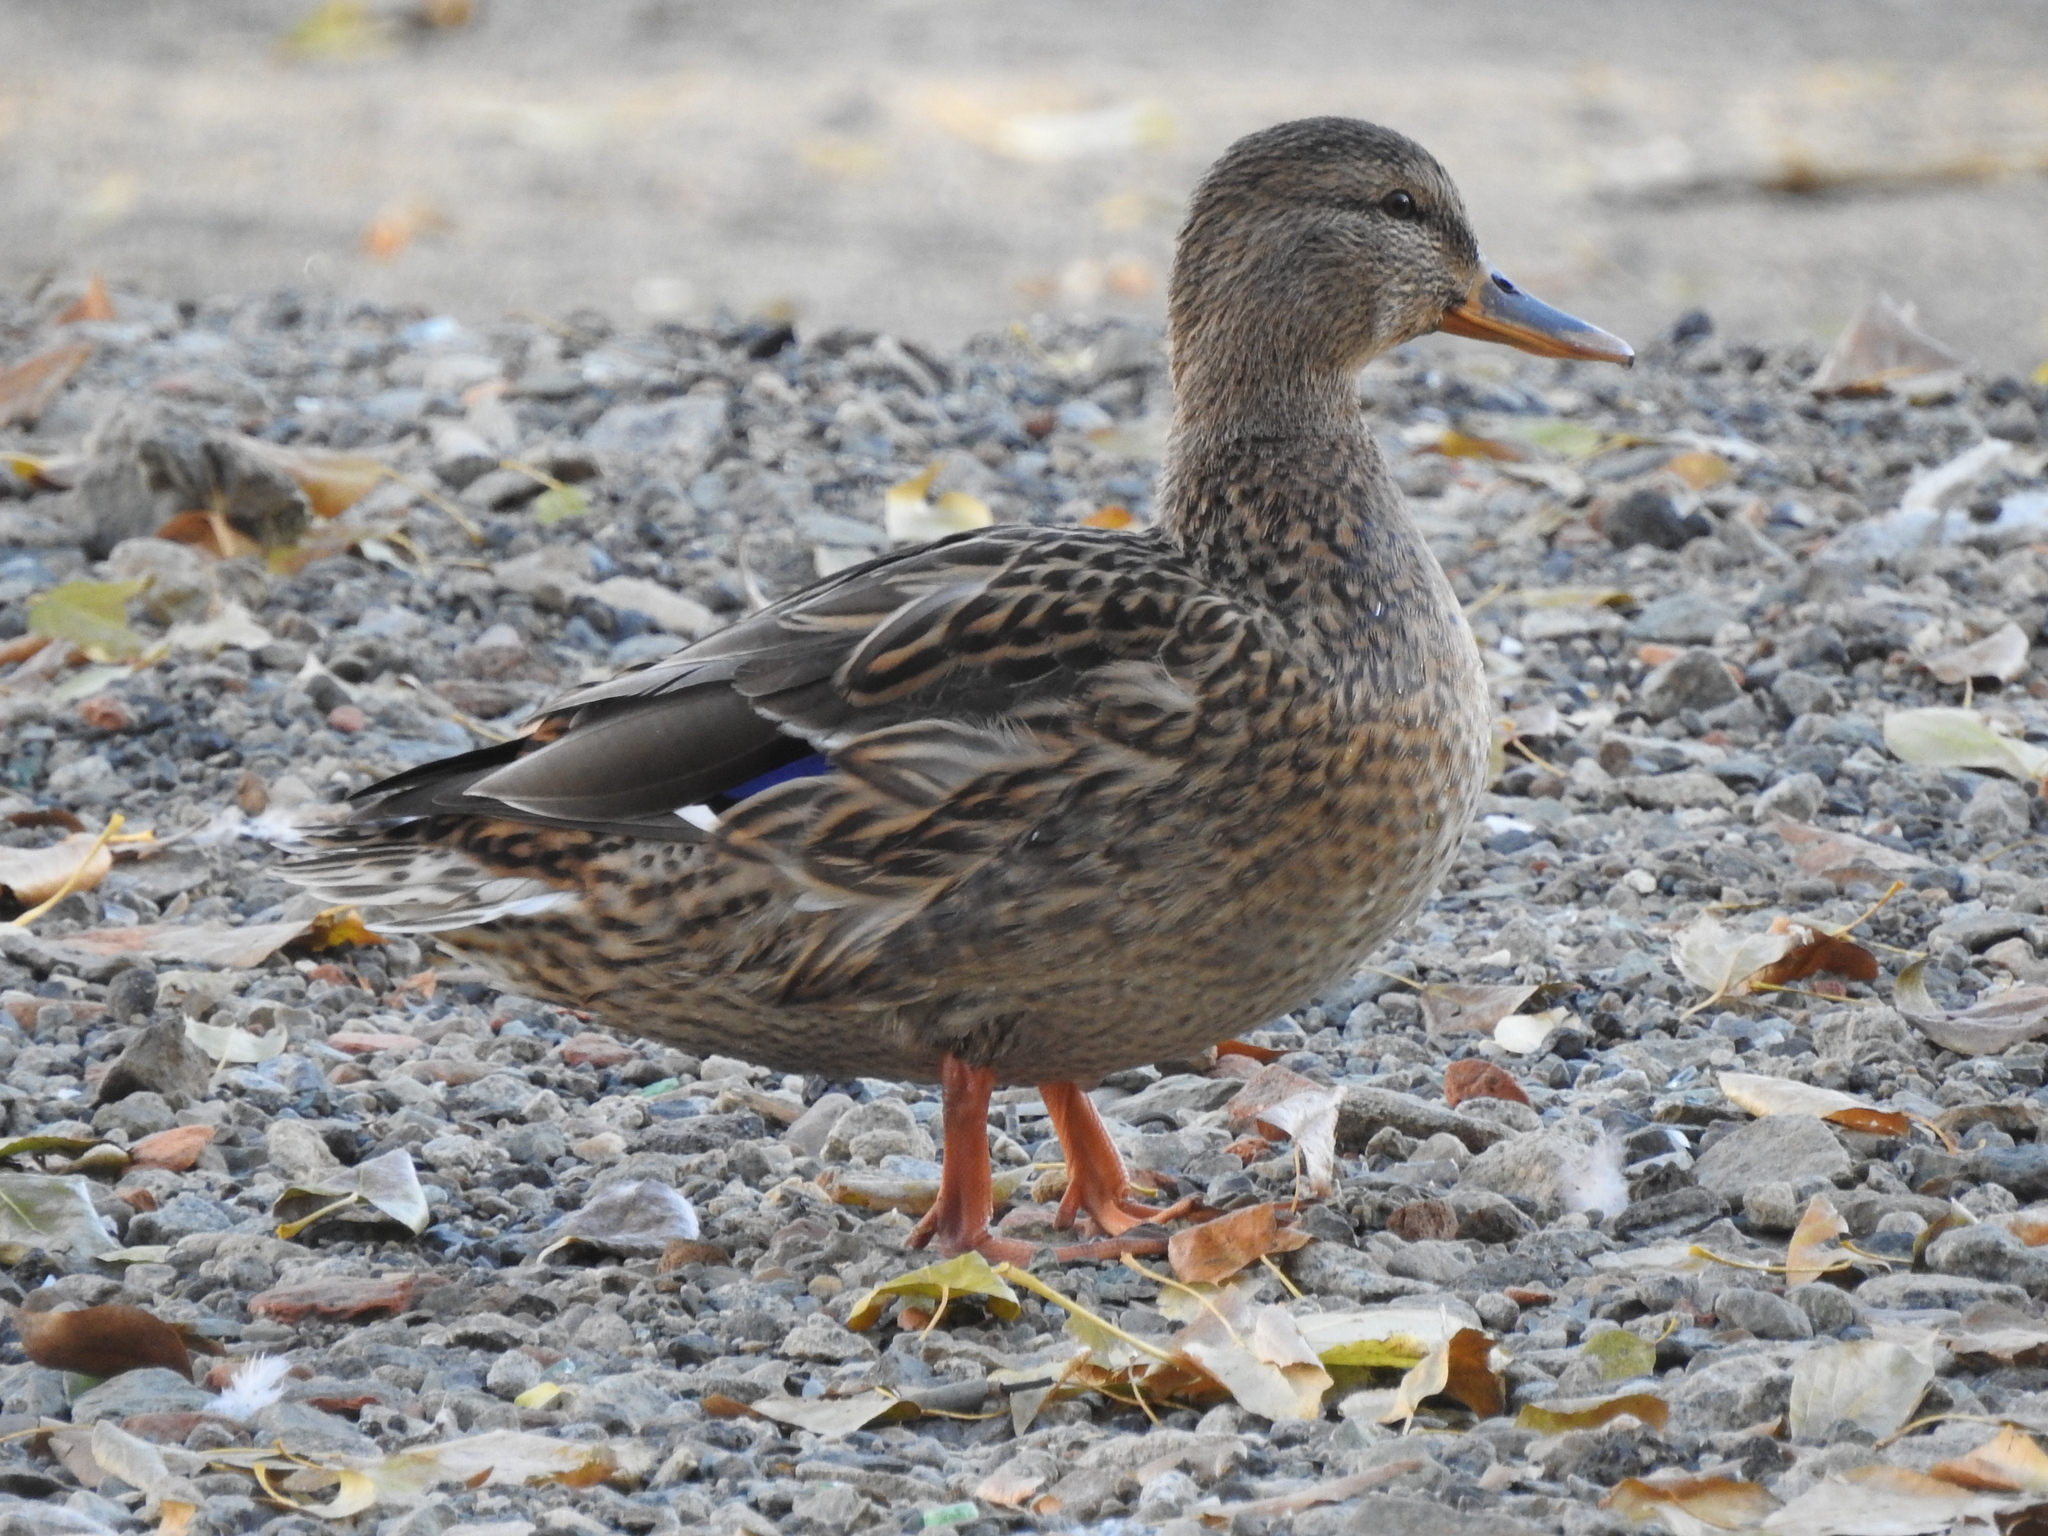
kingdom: Animalia
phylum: Chordata
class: Aves
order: Anseriformes
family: Anatidae
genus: Anas
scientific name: Anas platyrhynchos
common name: Mallard
